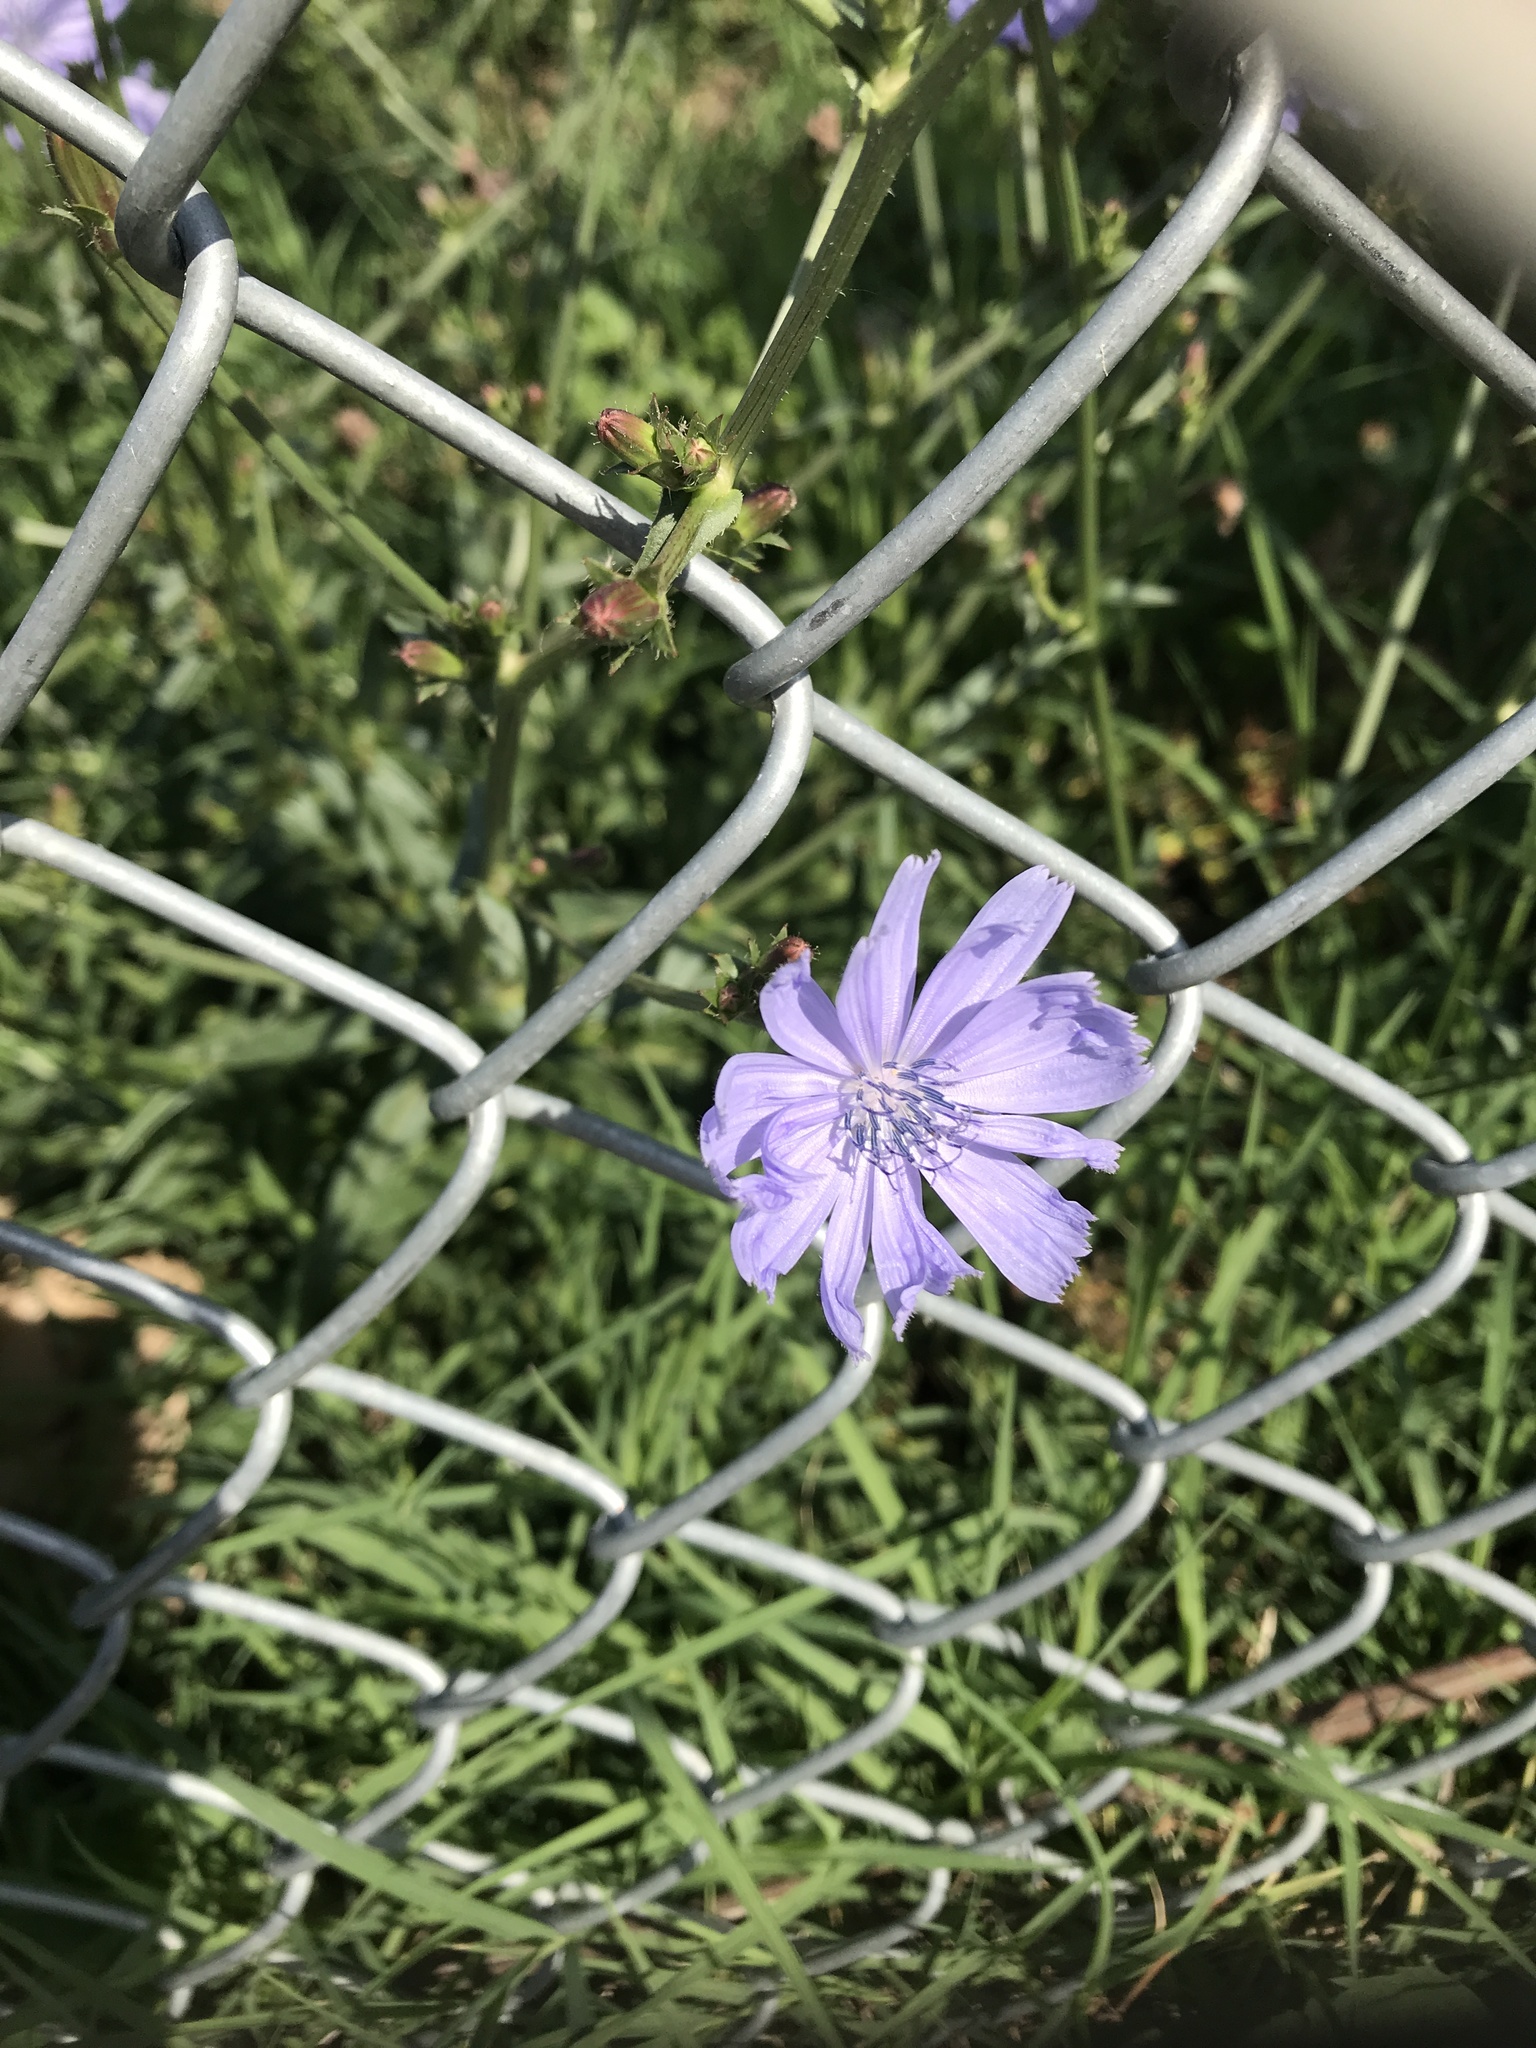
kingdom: Plantae
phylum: Tracheophyta
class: Magnoliopsida
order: Asterales
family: Asteraceae
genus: Cichorium
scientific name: Cichorium intybus
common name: Chicory
